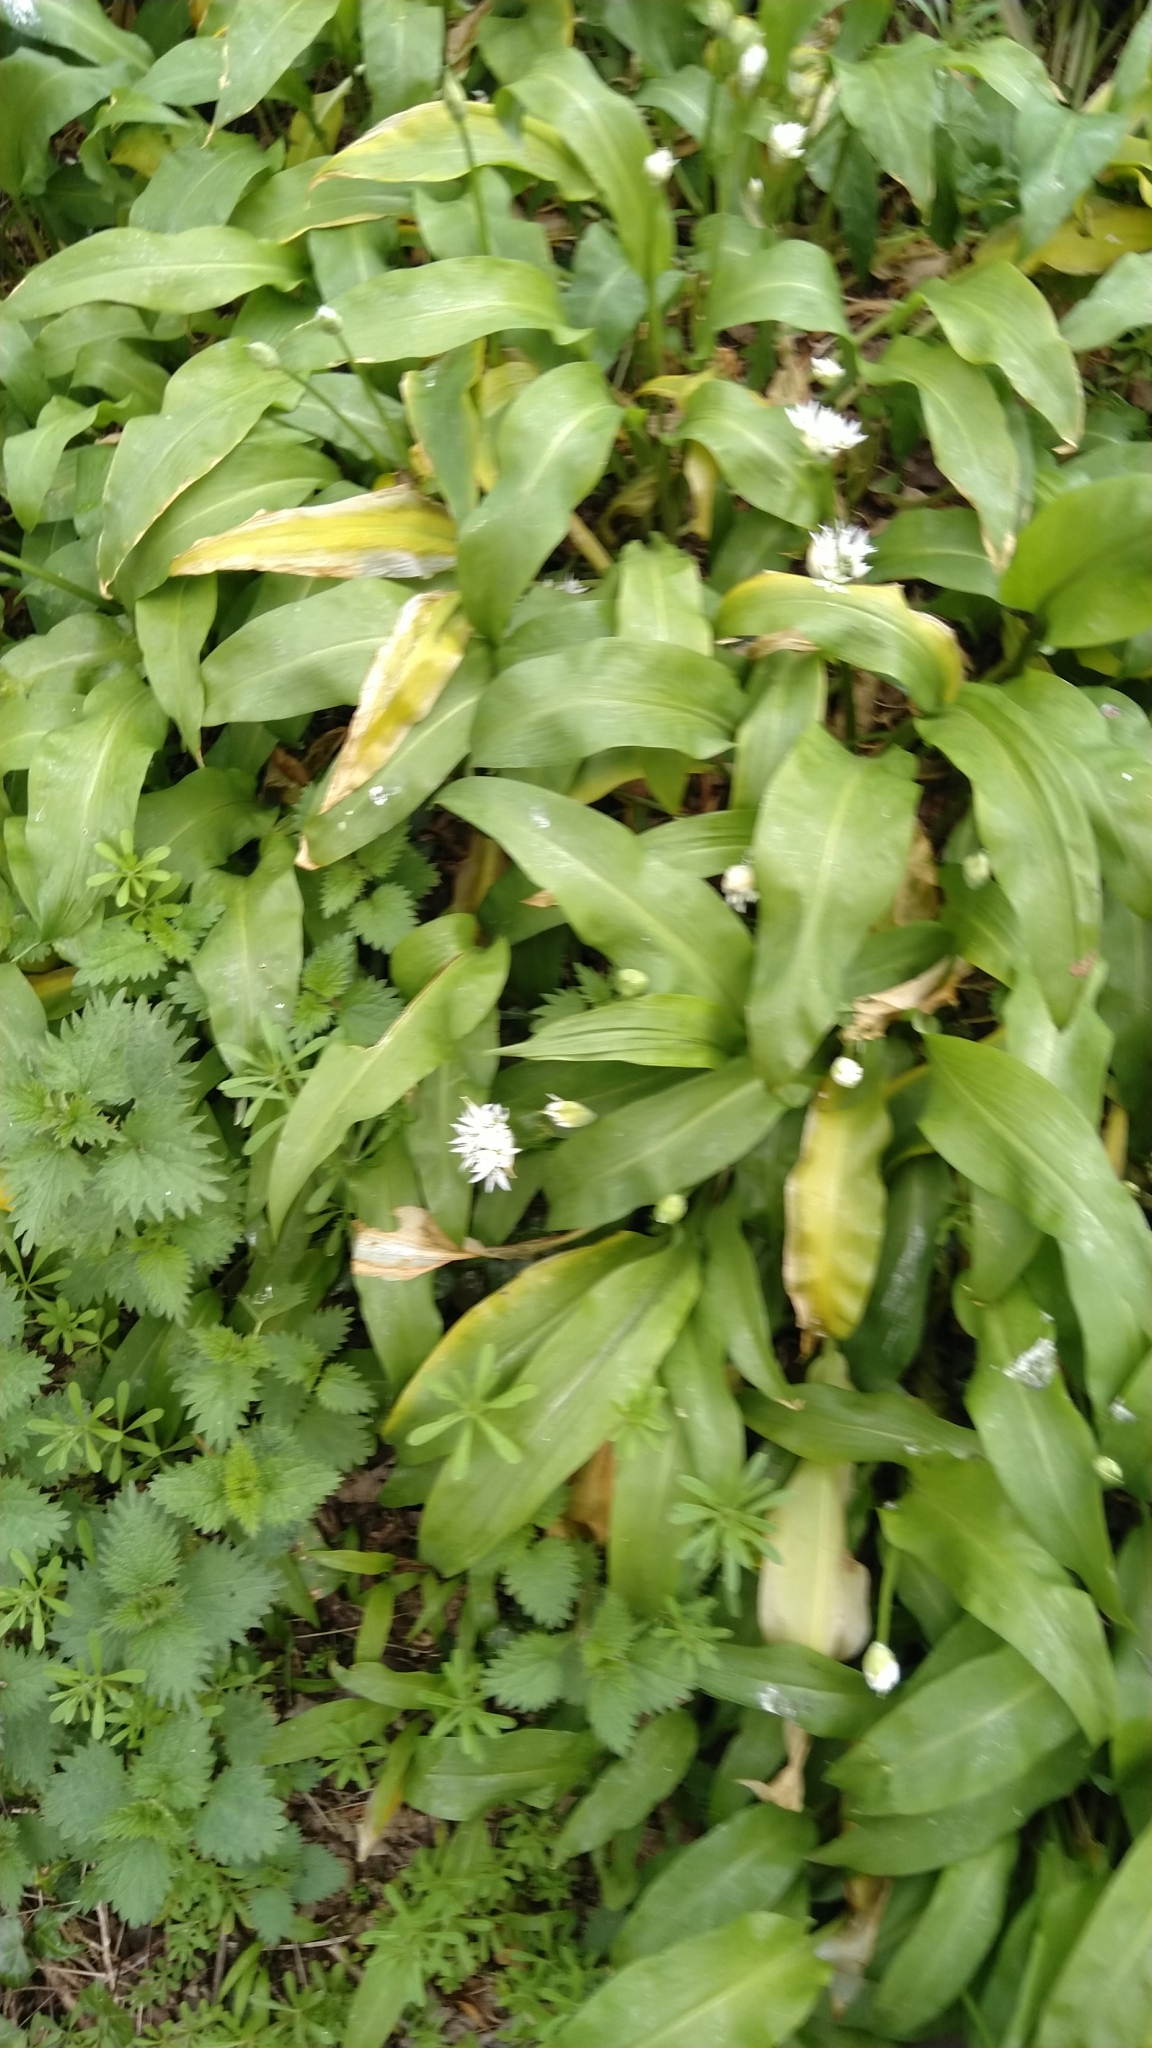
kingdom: Plantae
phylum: Tracheophyta
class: Liliopsida
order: Asparagales
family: Amaryllidaceae
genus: Allium
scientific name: Allium ursinum
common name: Ramsons
